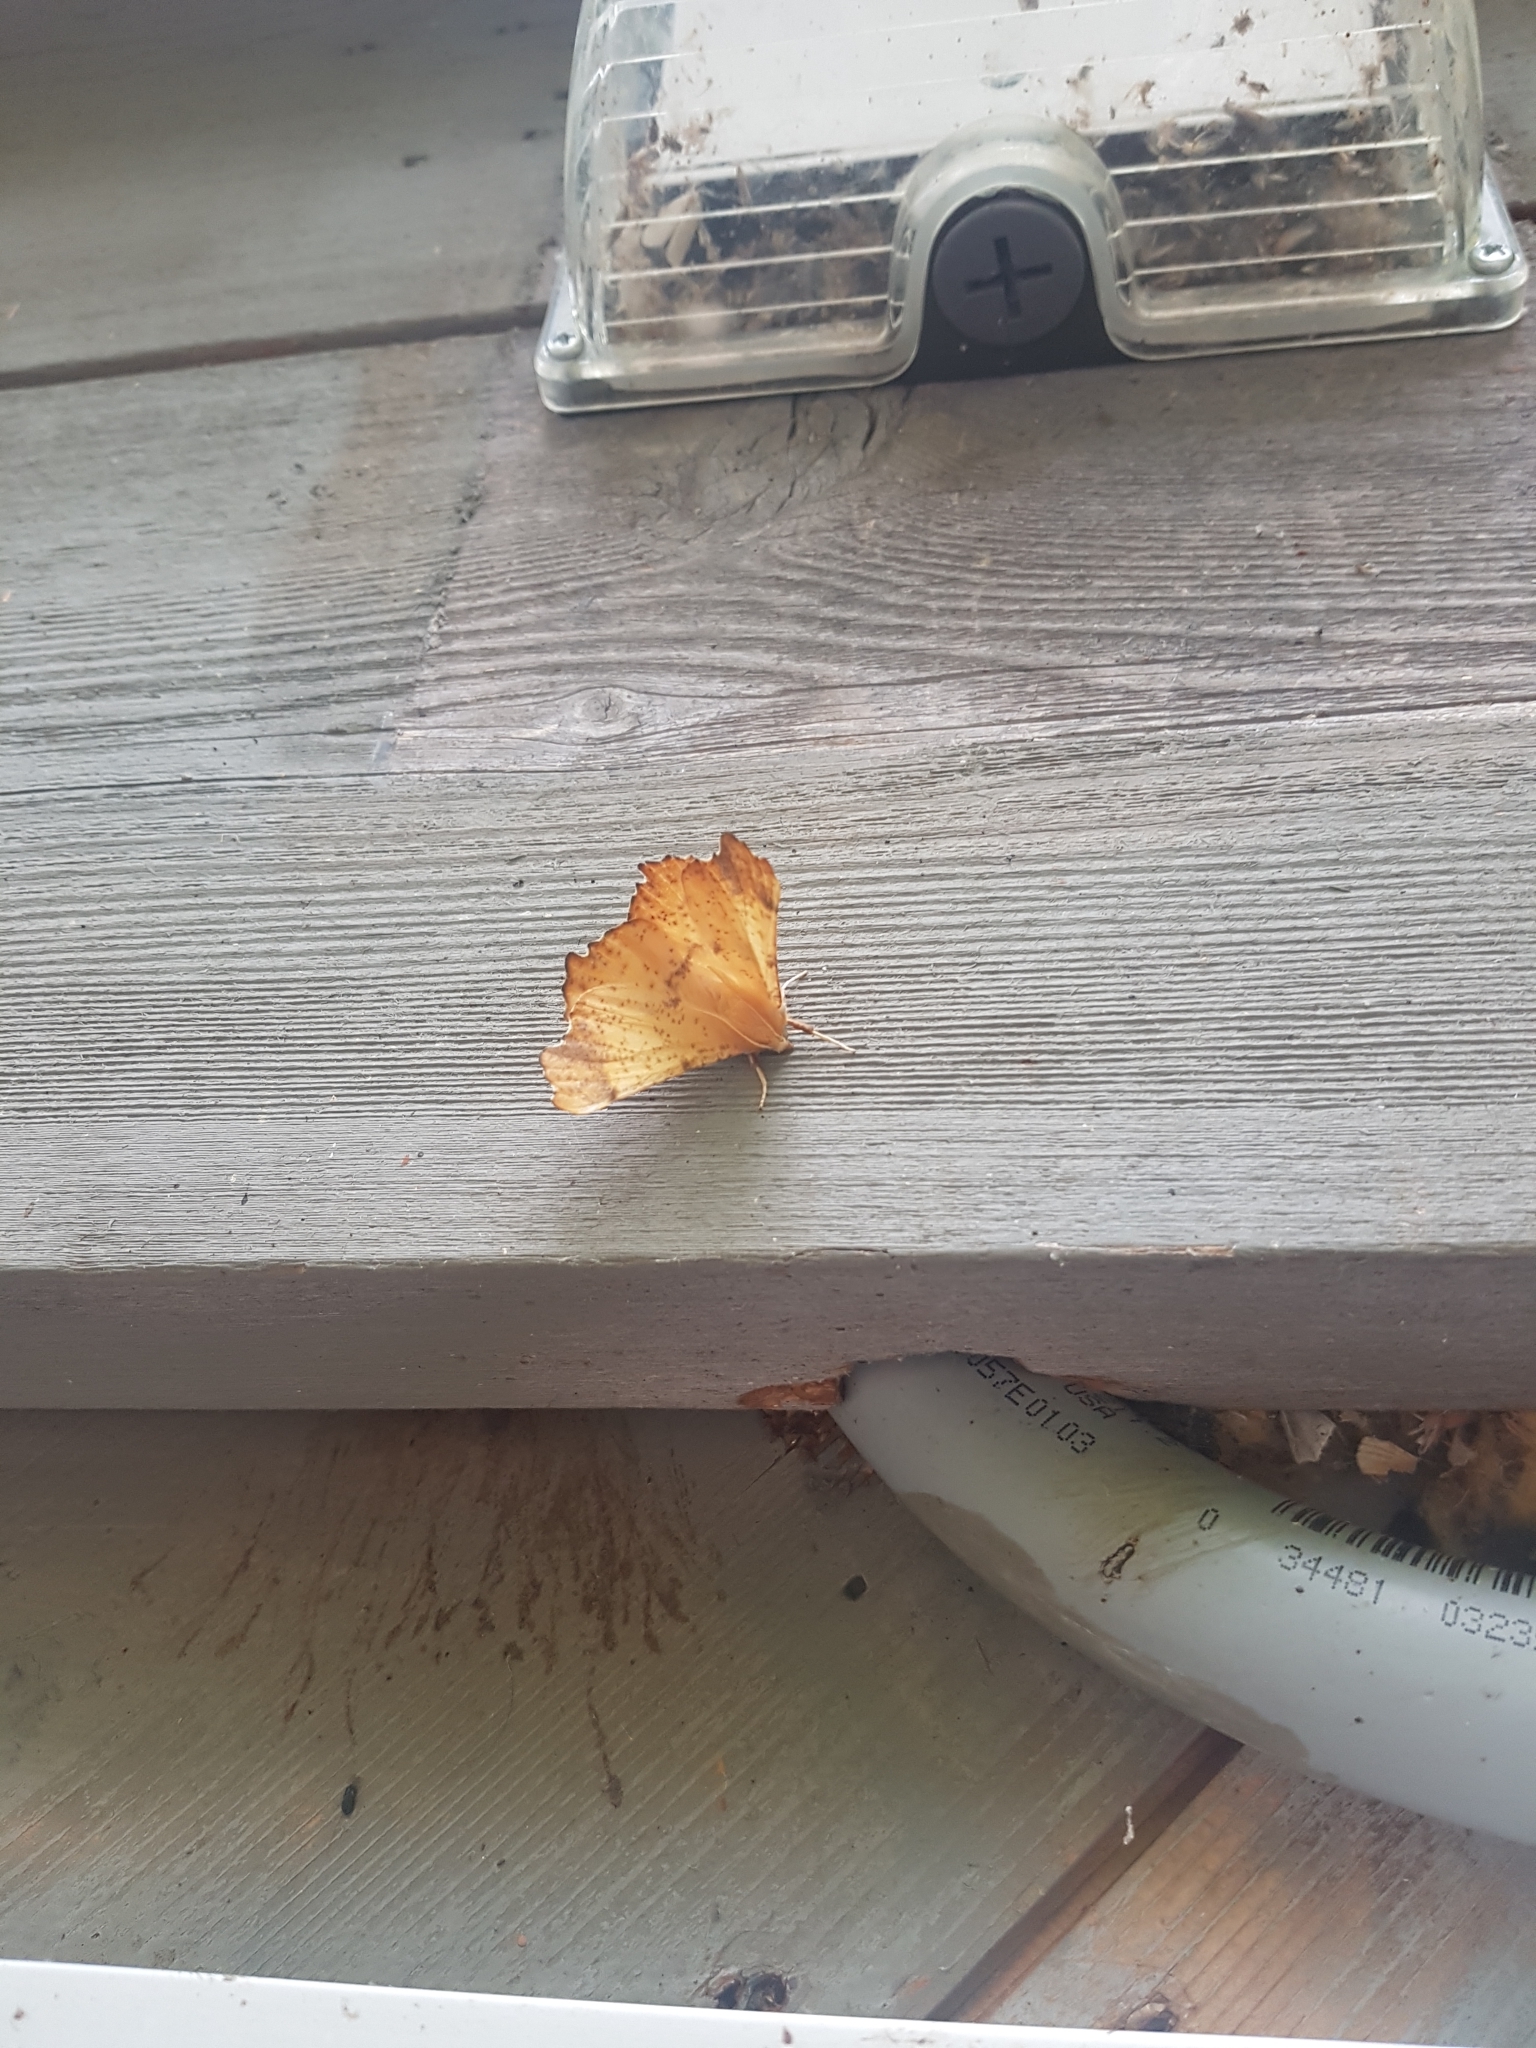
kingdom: Animalia
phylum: Arthropoda
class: Insecta
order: Lepidoptera
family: Geometridae
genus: Ennomos
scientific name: Ennomos magnaria
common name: Maple spanworm
